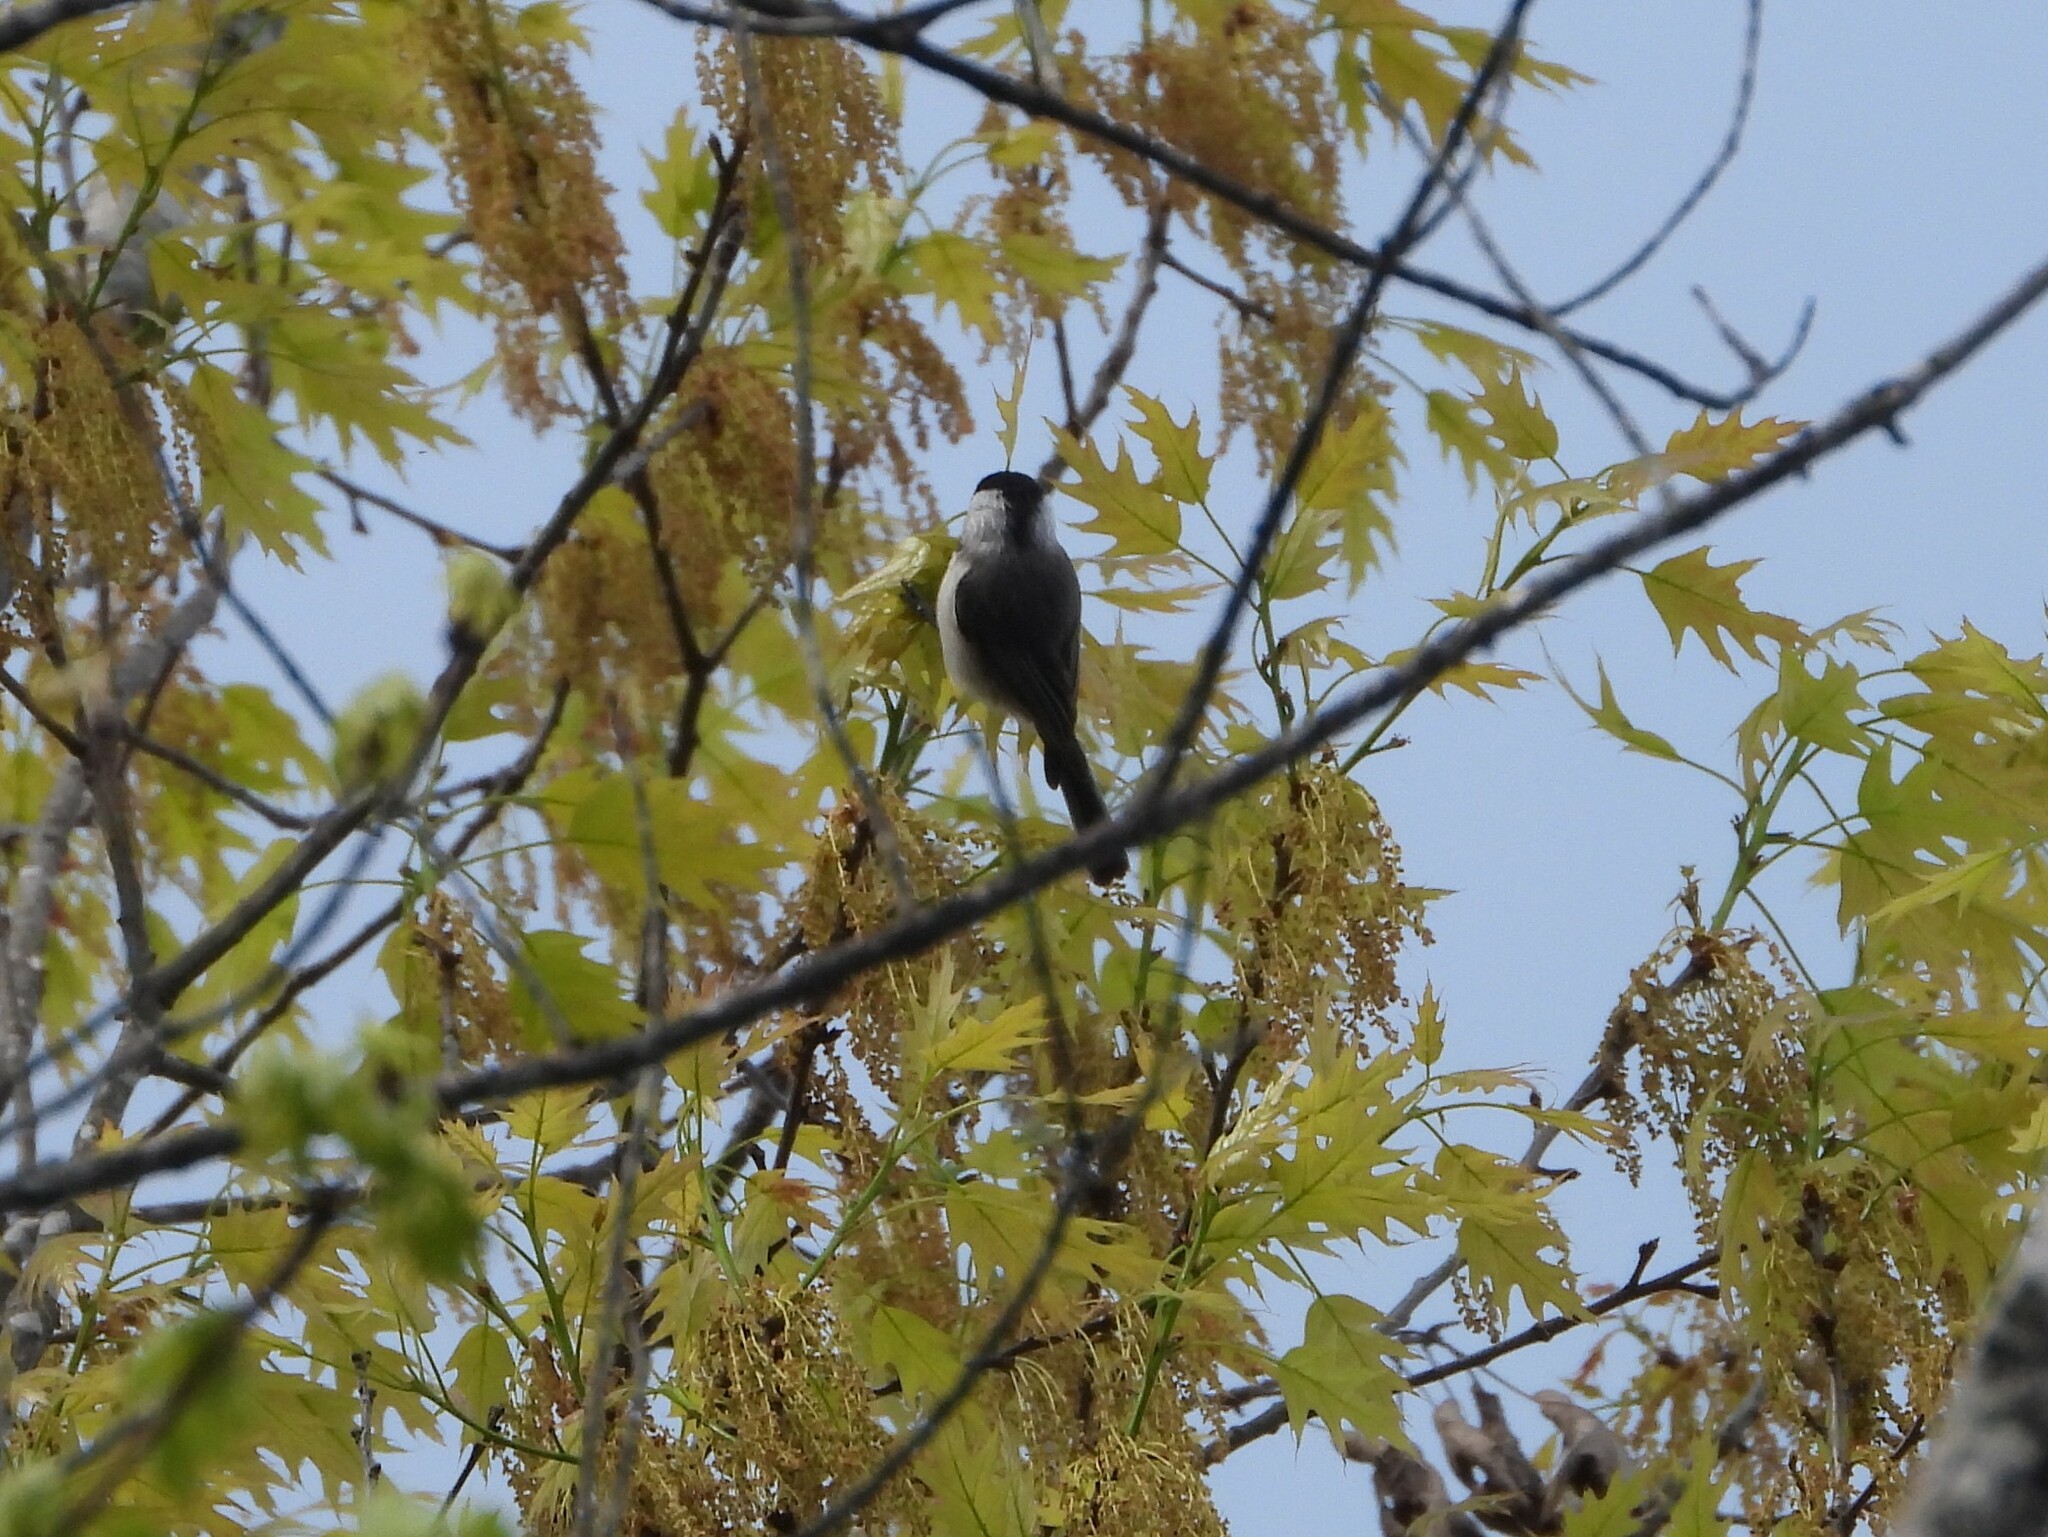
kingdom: Animalia
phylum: Chordata
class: Aves
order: Passeriformes
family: Paridae
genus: Poecile
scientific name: Poecile carolinensis
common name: Carolina chickadee
